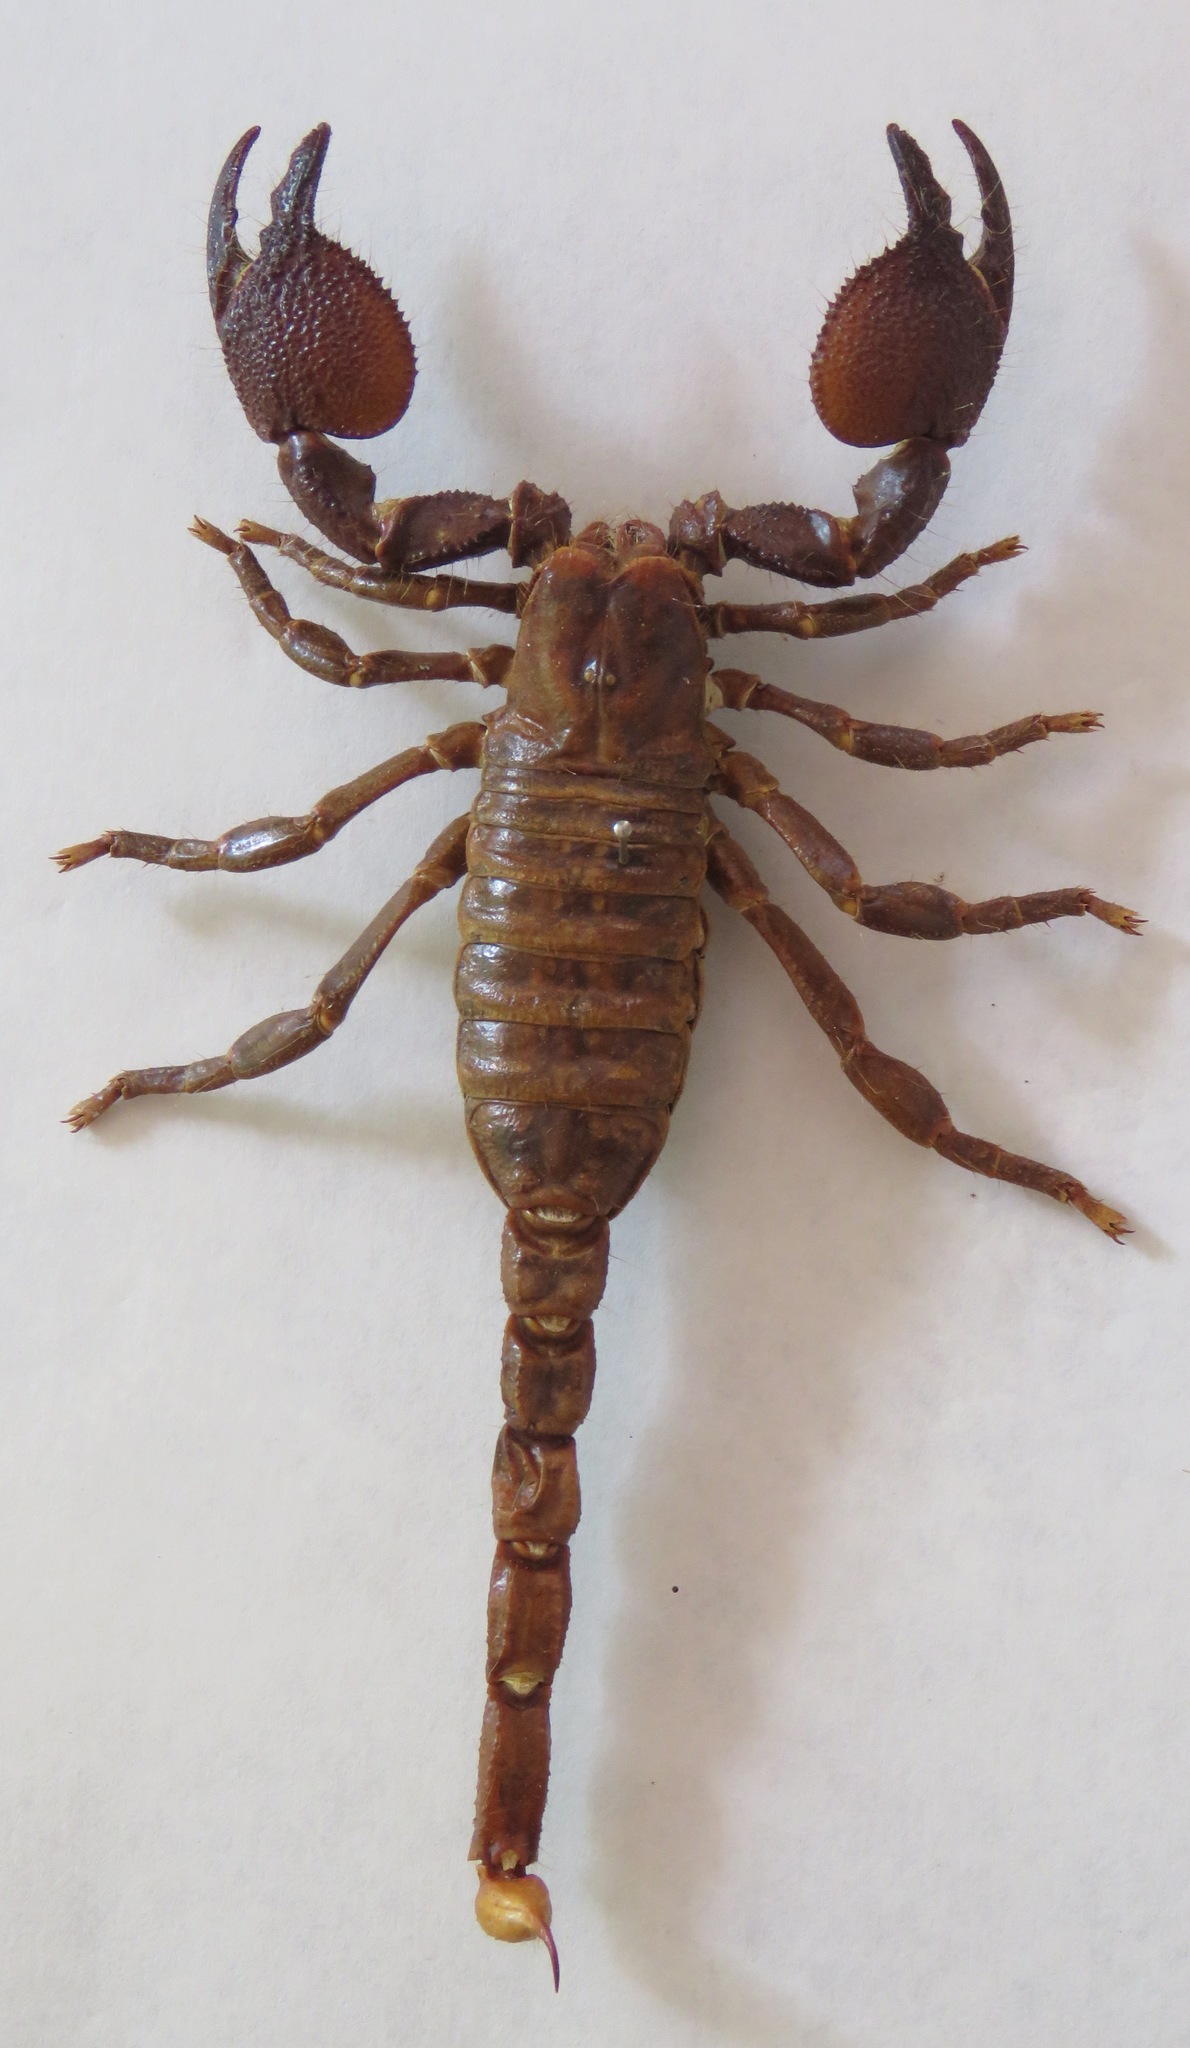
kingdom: Animalia
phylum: Arthropoda
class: Arachnida
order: Scorpiones
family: Scorpionidae
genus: Pandinus
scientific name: Pandinus imperator
